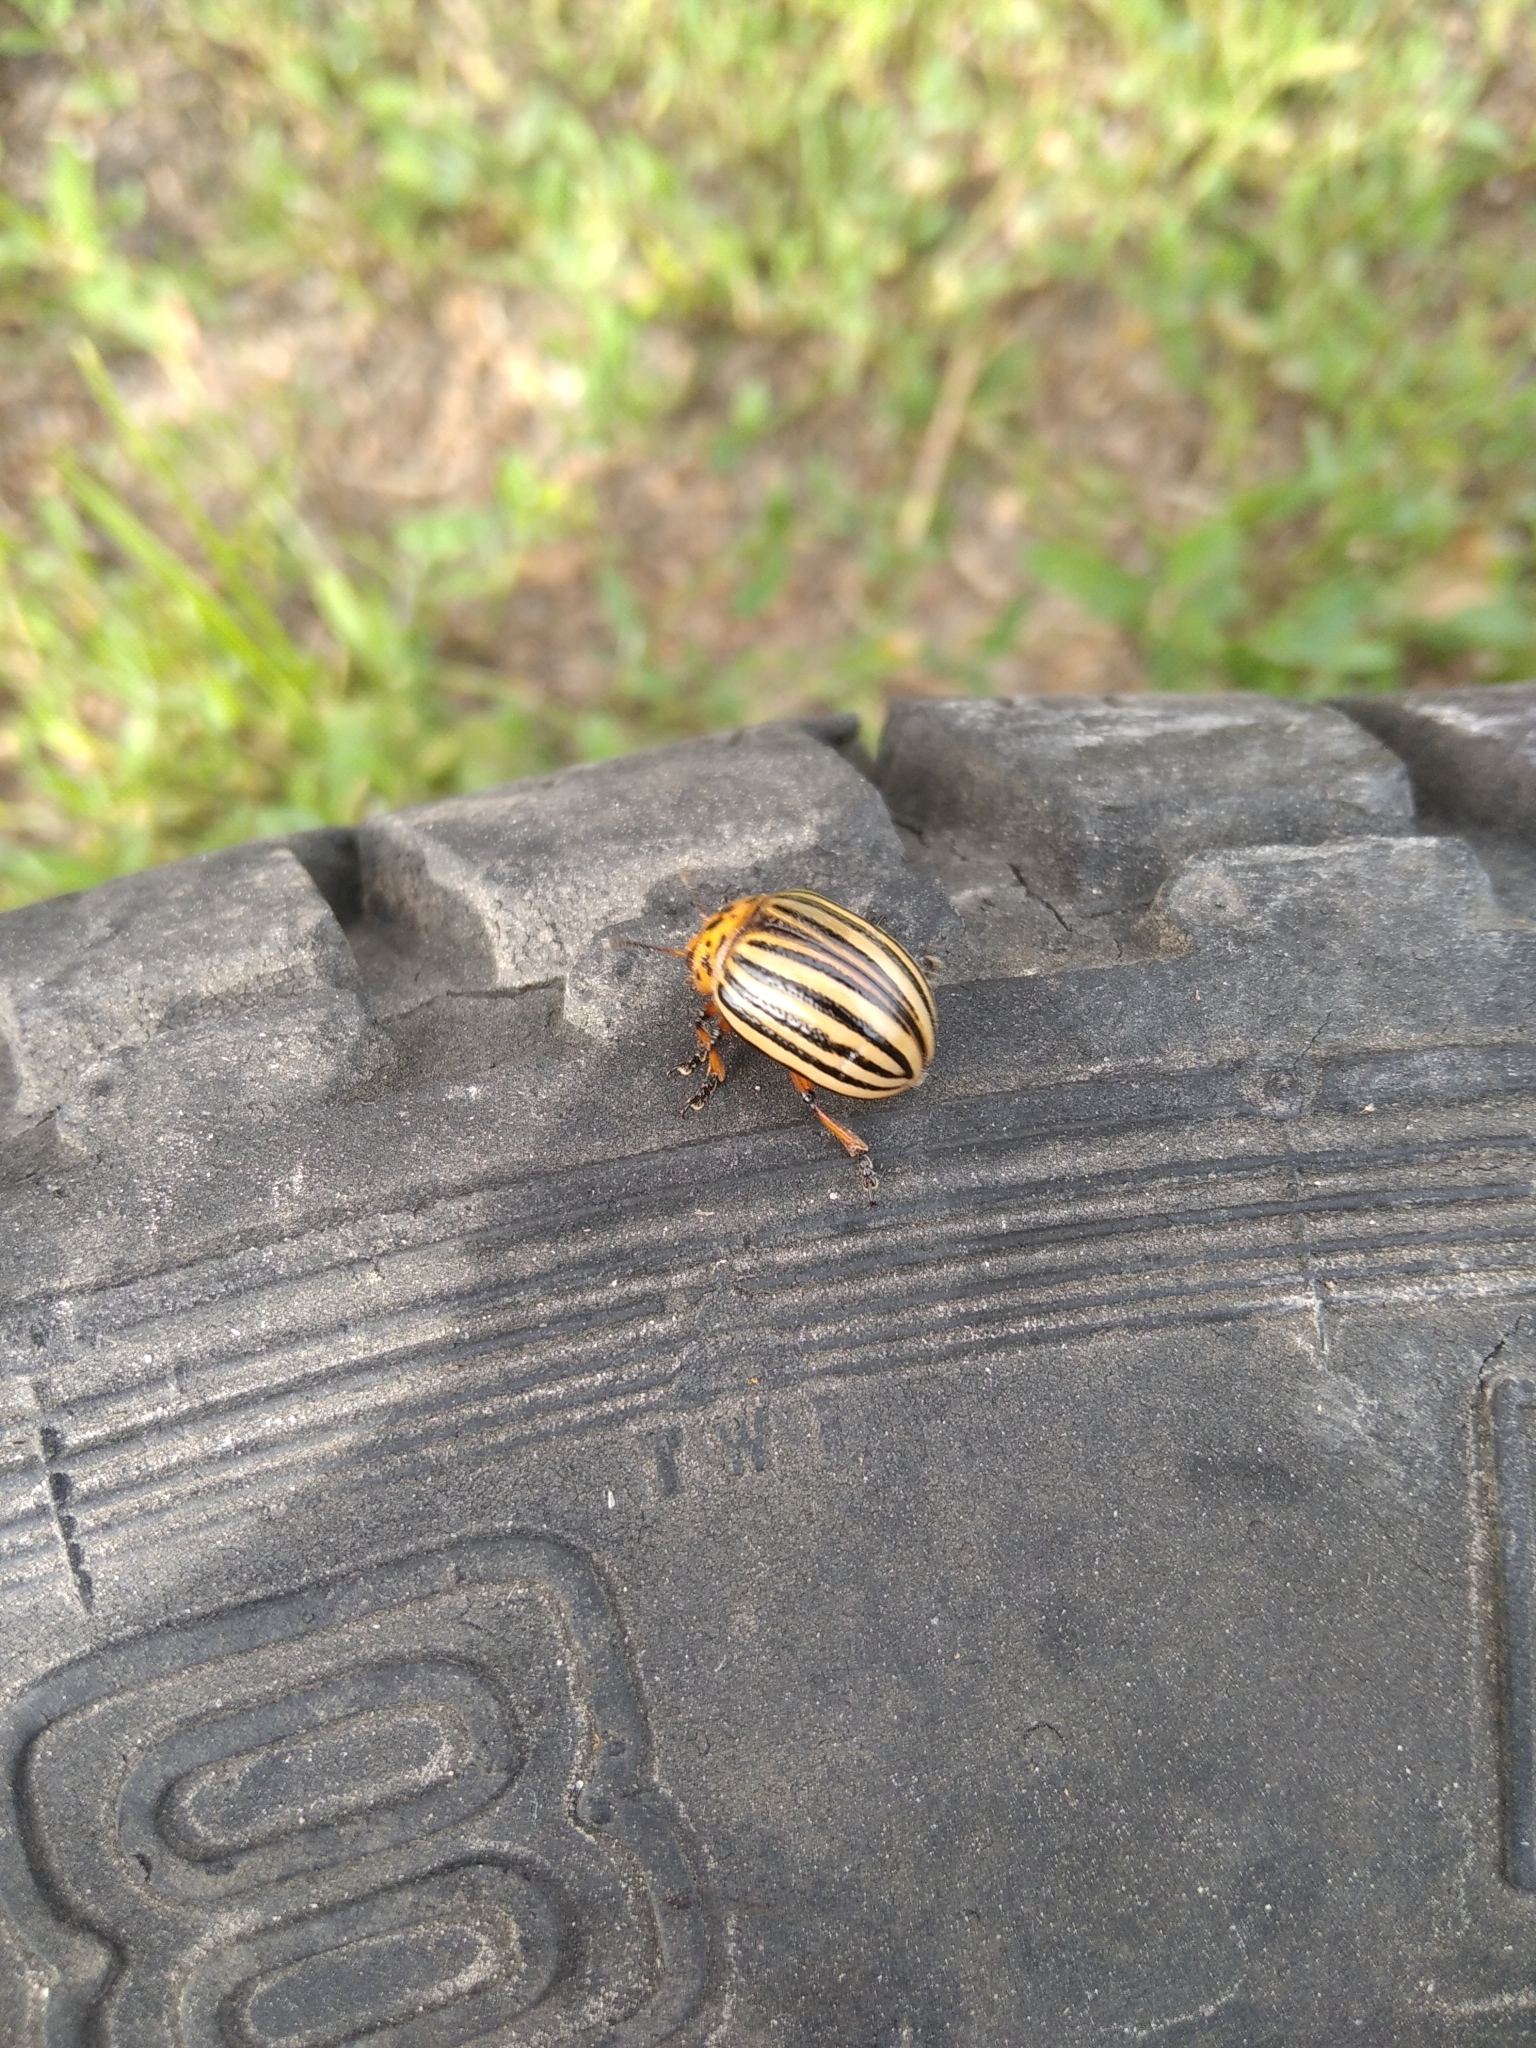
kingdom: Animalia
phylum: Arthropoda
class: Insecta
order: Coleoptera
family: Chrysomelidae
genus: Leptinotarsa
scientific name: Leptinotarsa decemlineata
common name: Colorado potato beetle
